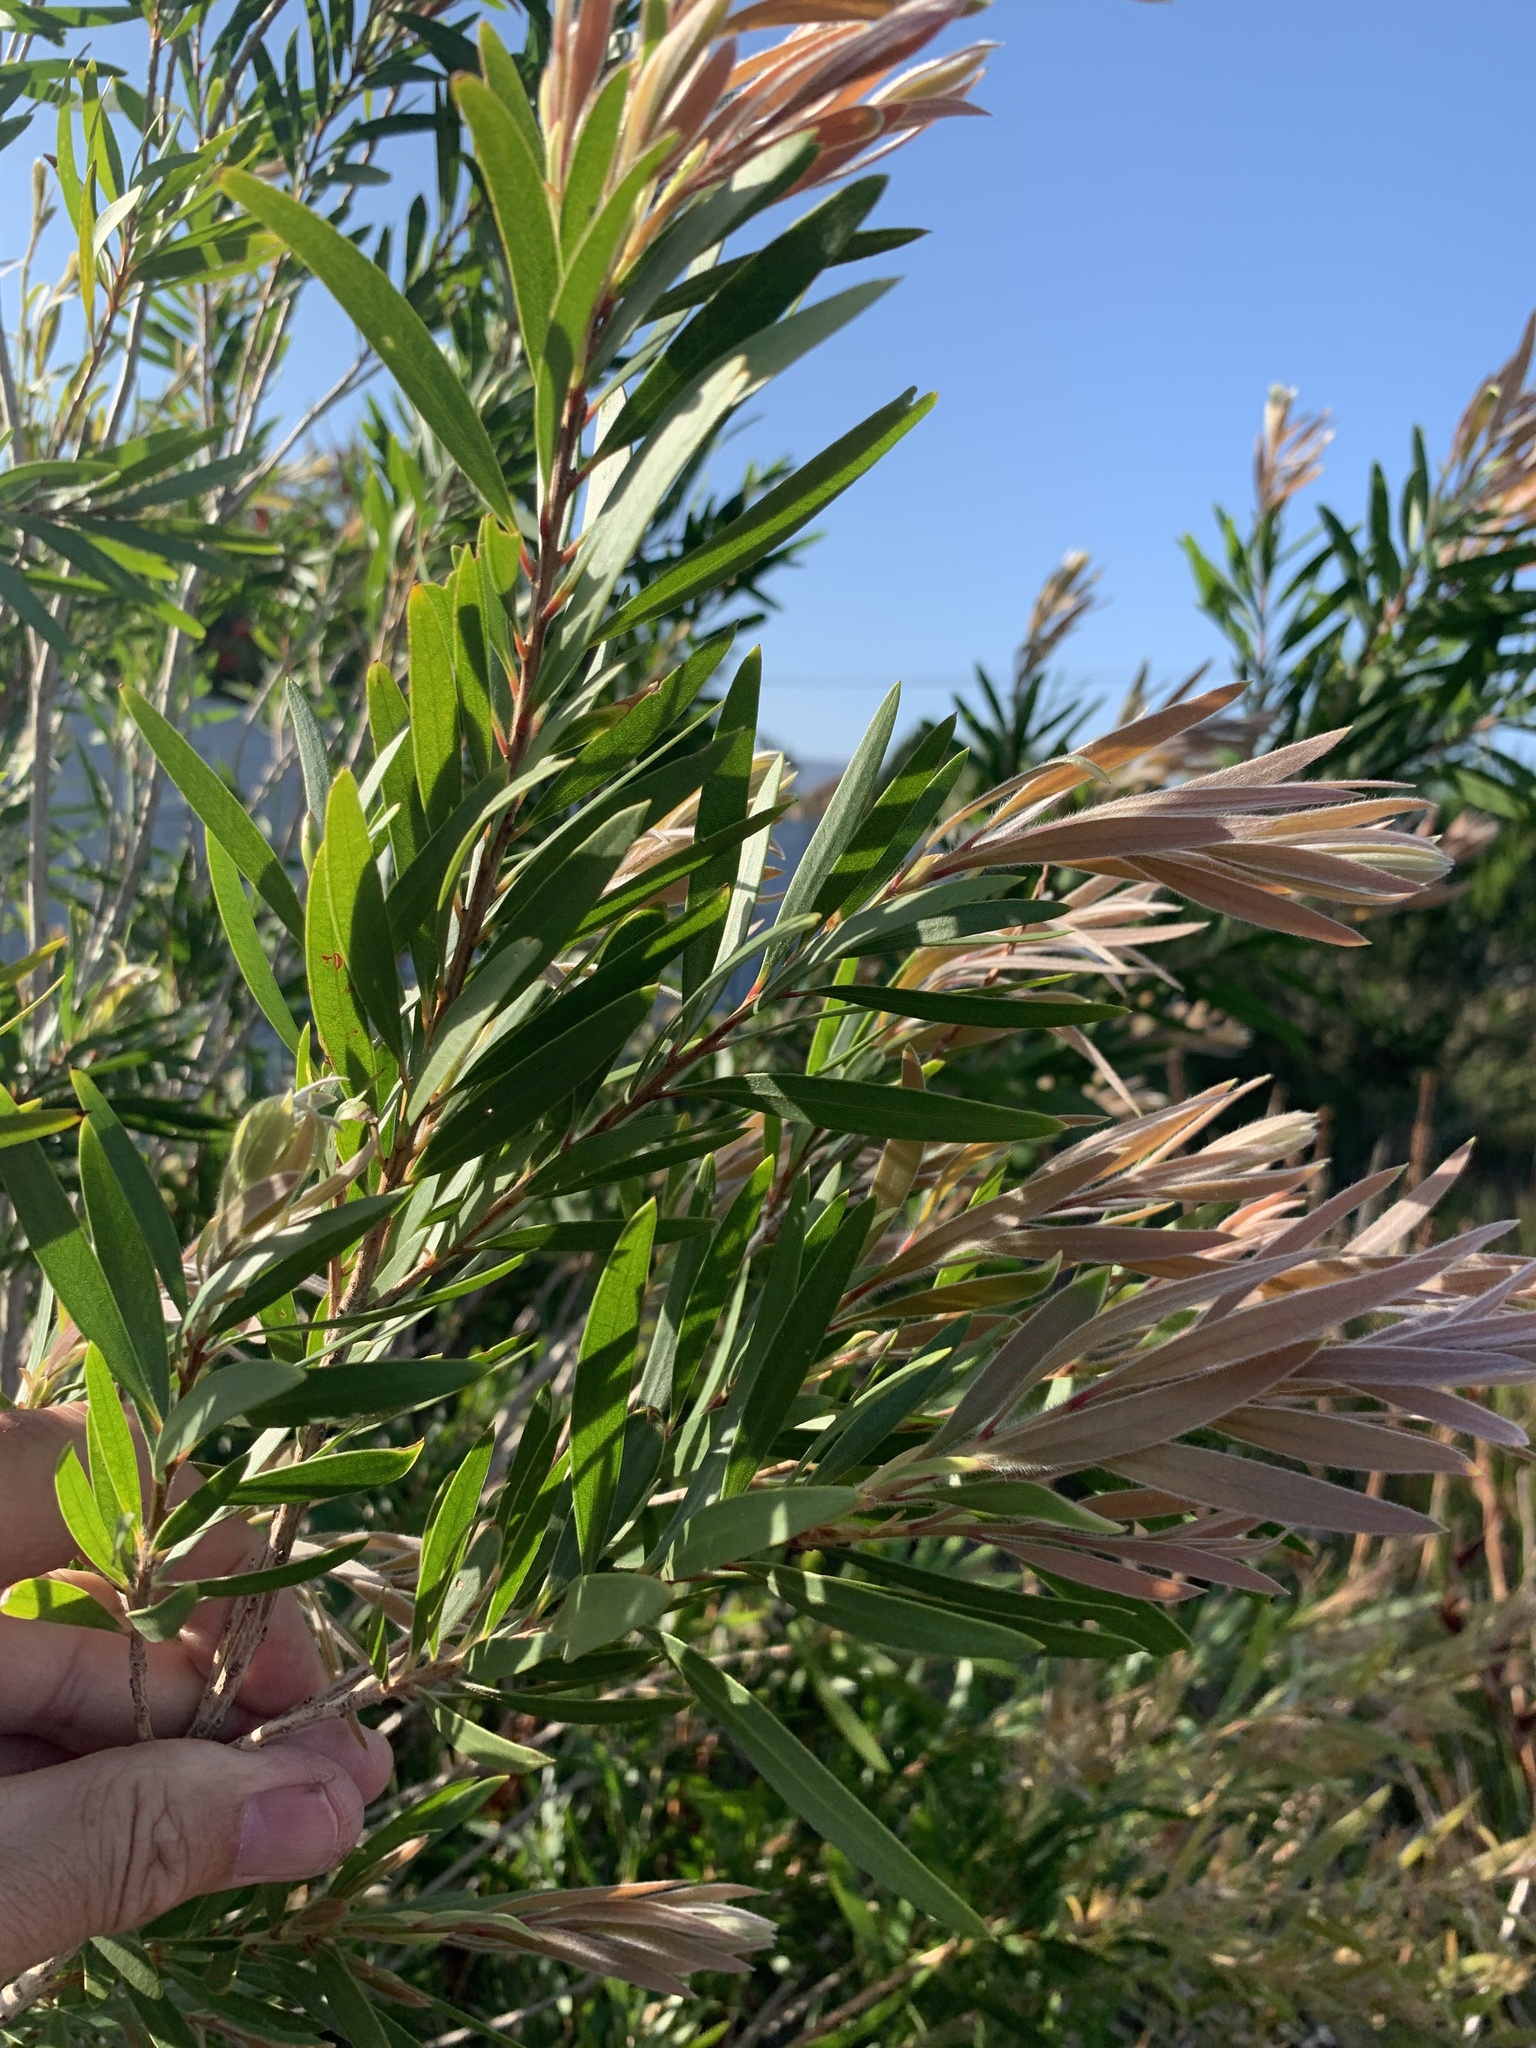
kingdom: Plantae
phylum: Tracheophyta
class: Magnoliopsida
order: Myrtales
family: Myrtaceae
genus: Callistemon
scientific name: Callistemon viminalis
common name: Drooping bottlebrush
